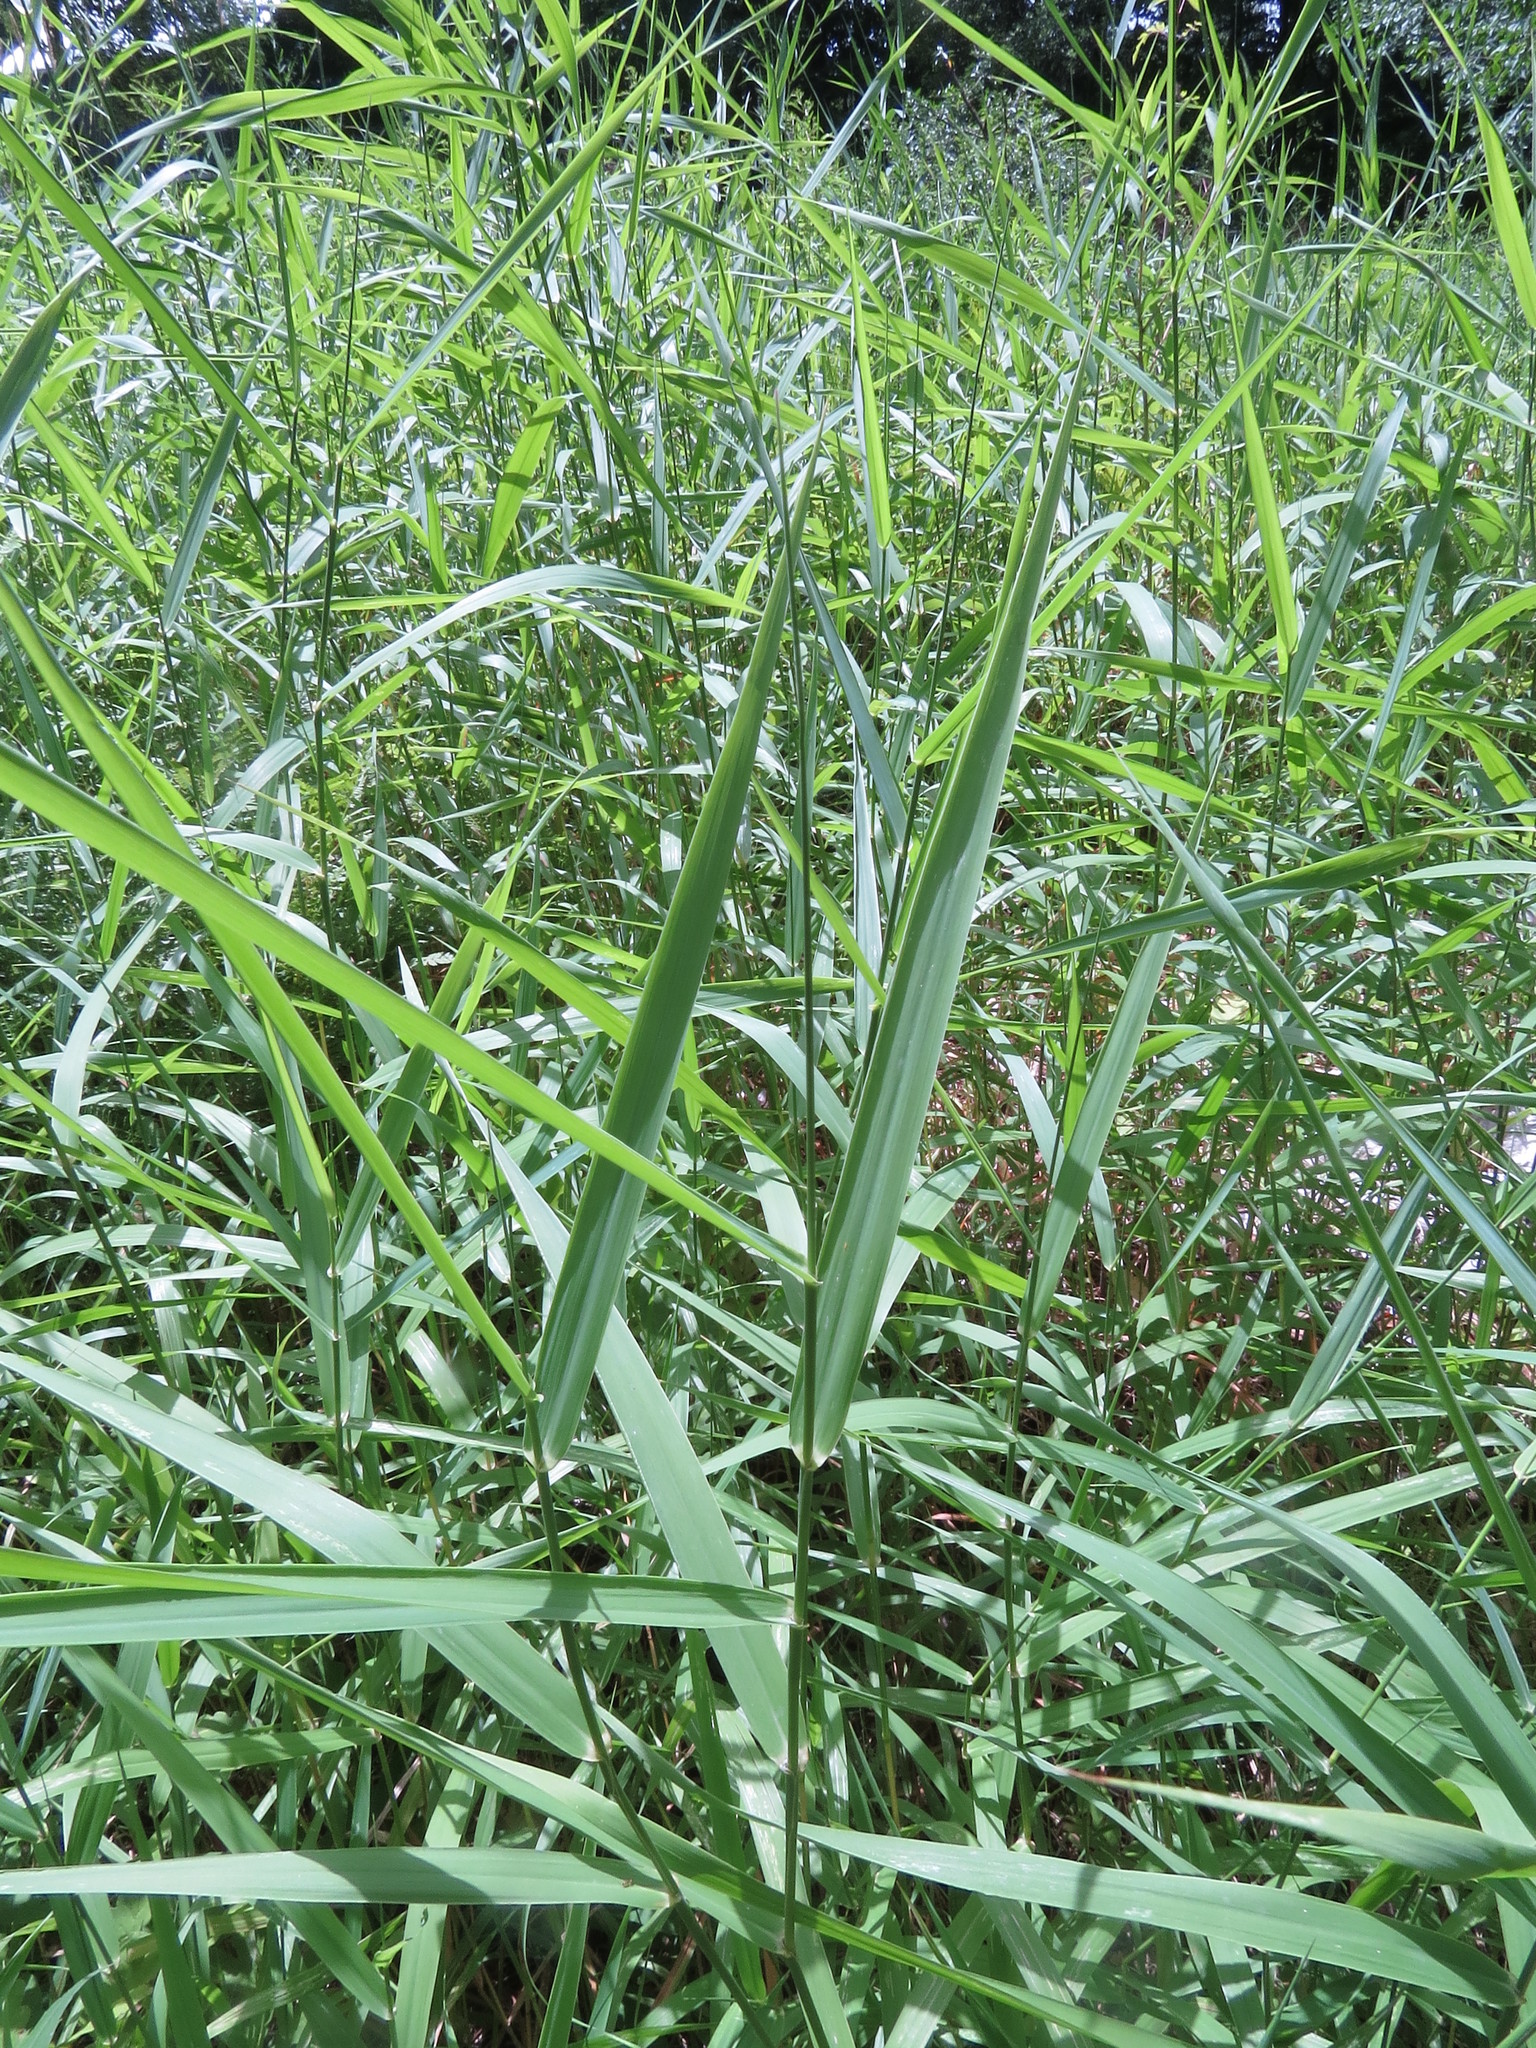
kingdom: Plantae
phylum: Tracheophyta
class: Liliopsida
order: Poales
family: Poaceae
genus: Phalaris
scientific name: Phalaris arundinacea
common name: Reed canary-grass
